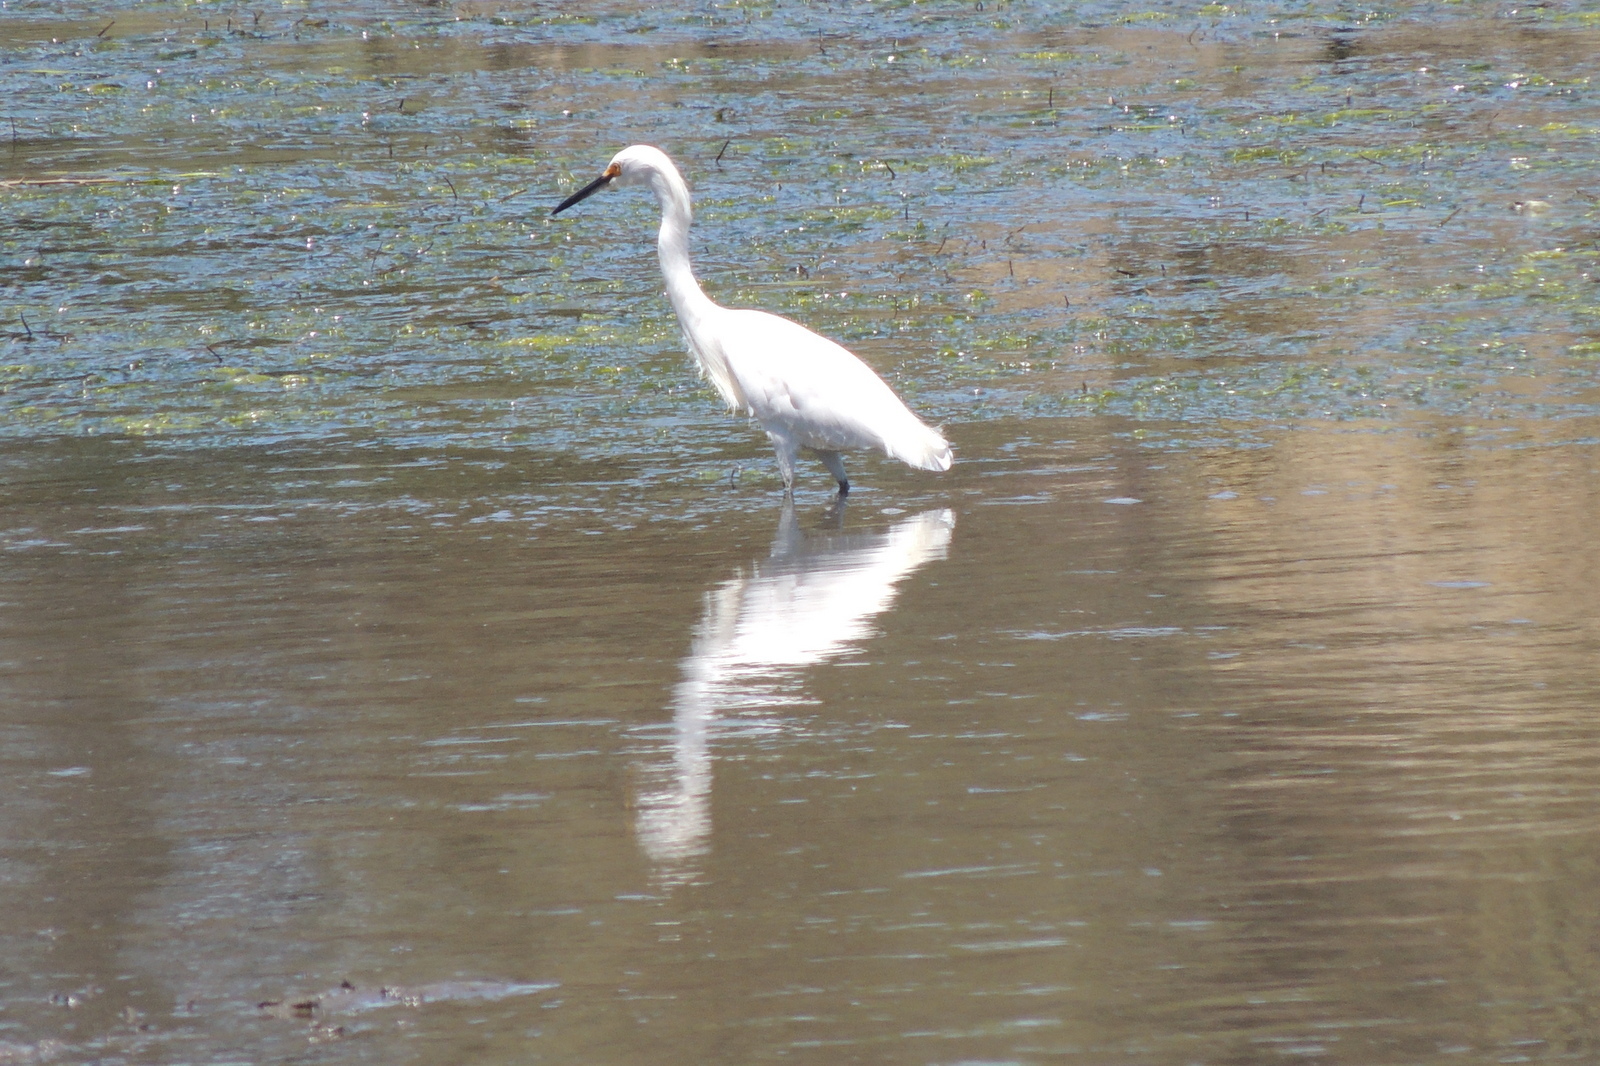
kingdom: Animalia
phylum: Chordata
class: Aves
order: Pelecaniformes
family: Ardeidae
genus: Egretta
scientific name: Egretta thula
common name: Snowy egret
